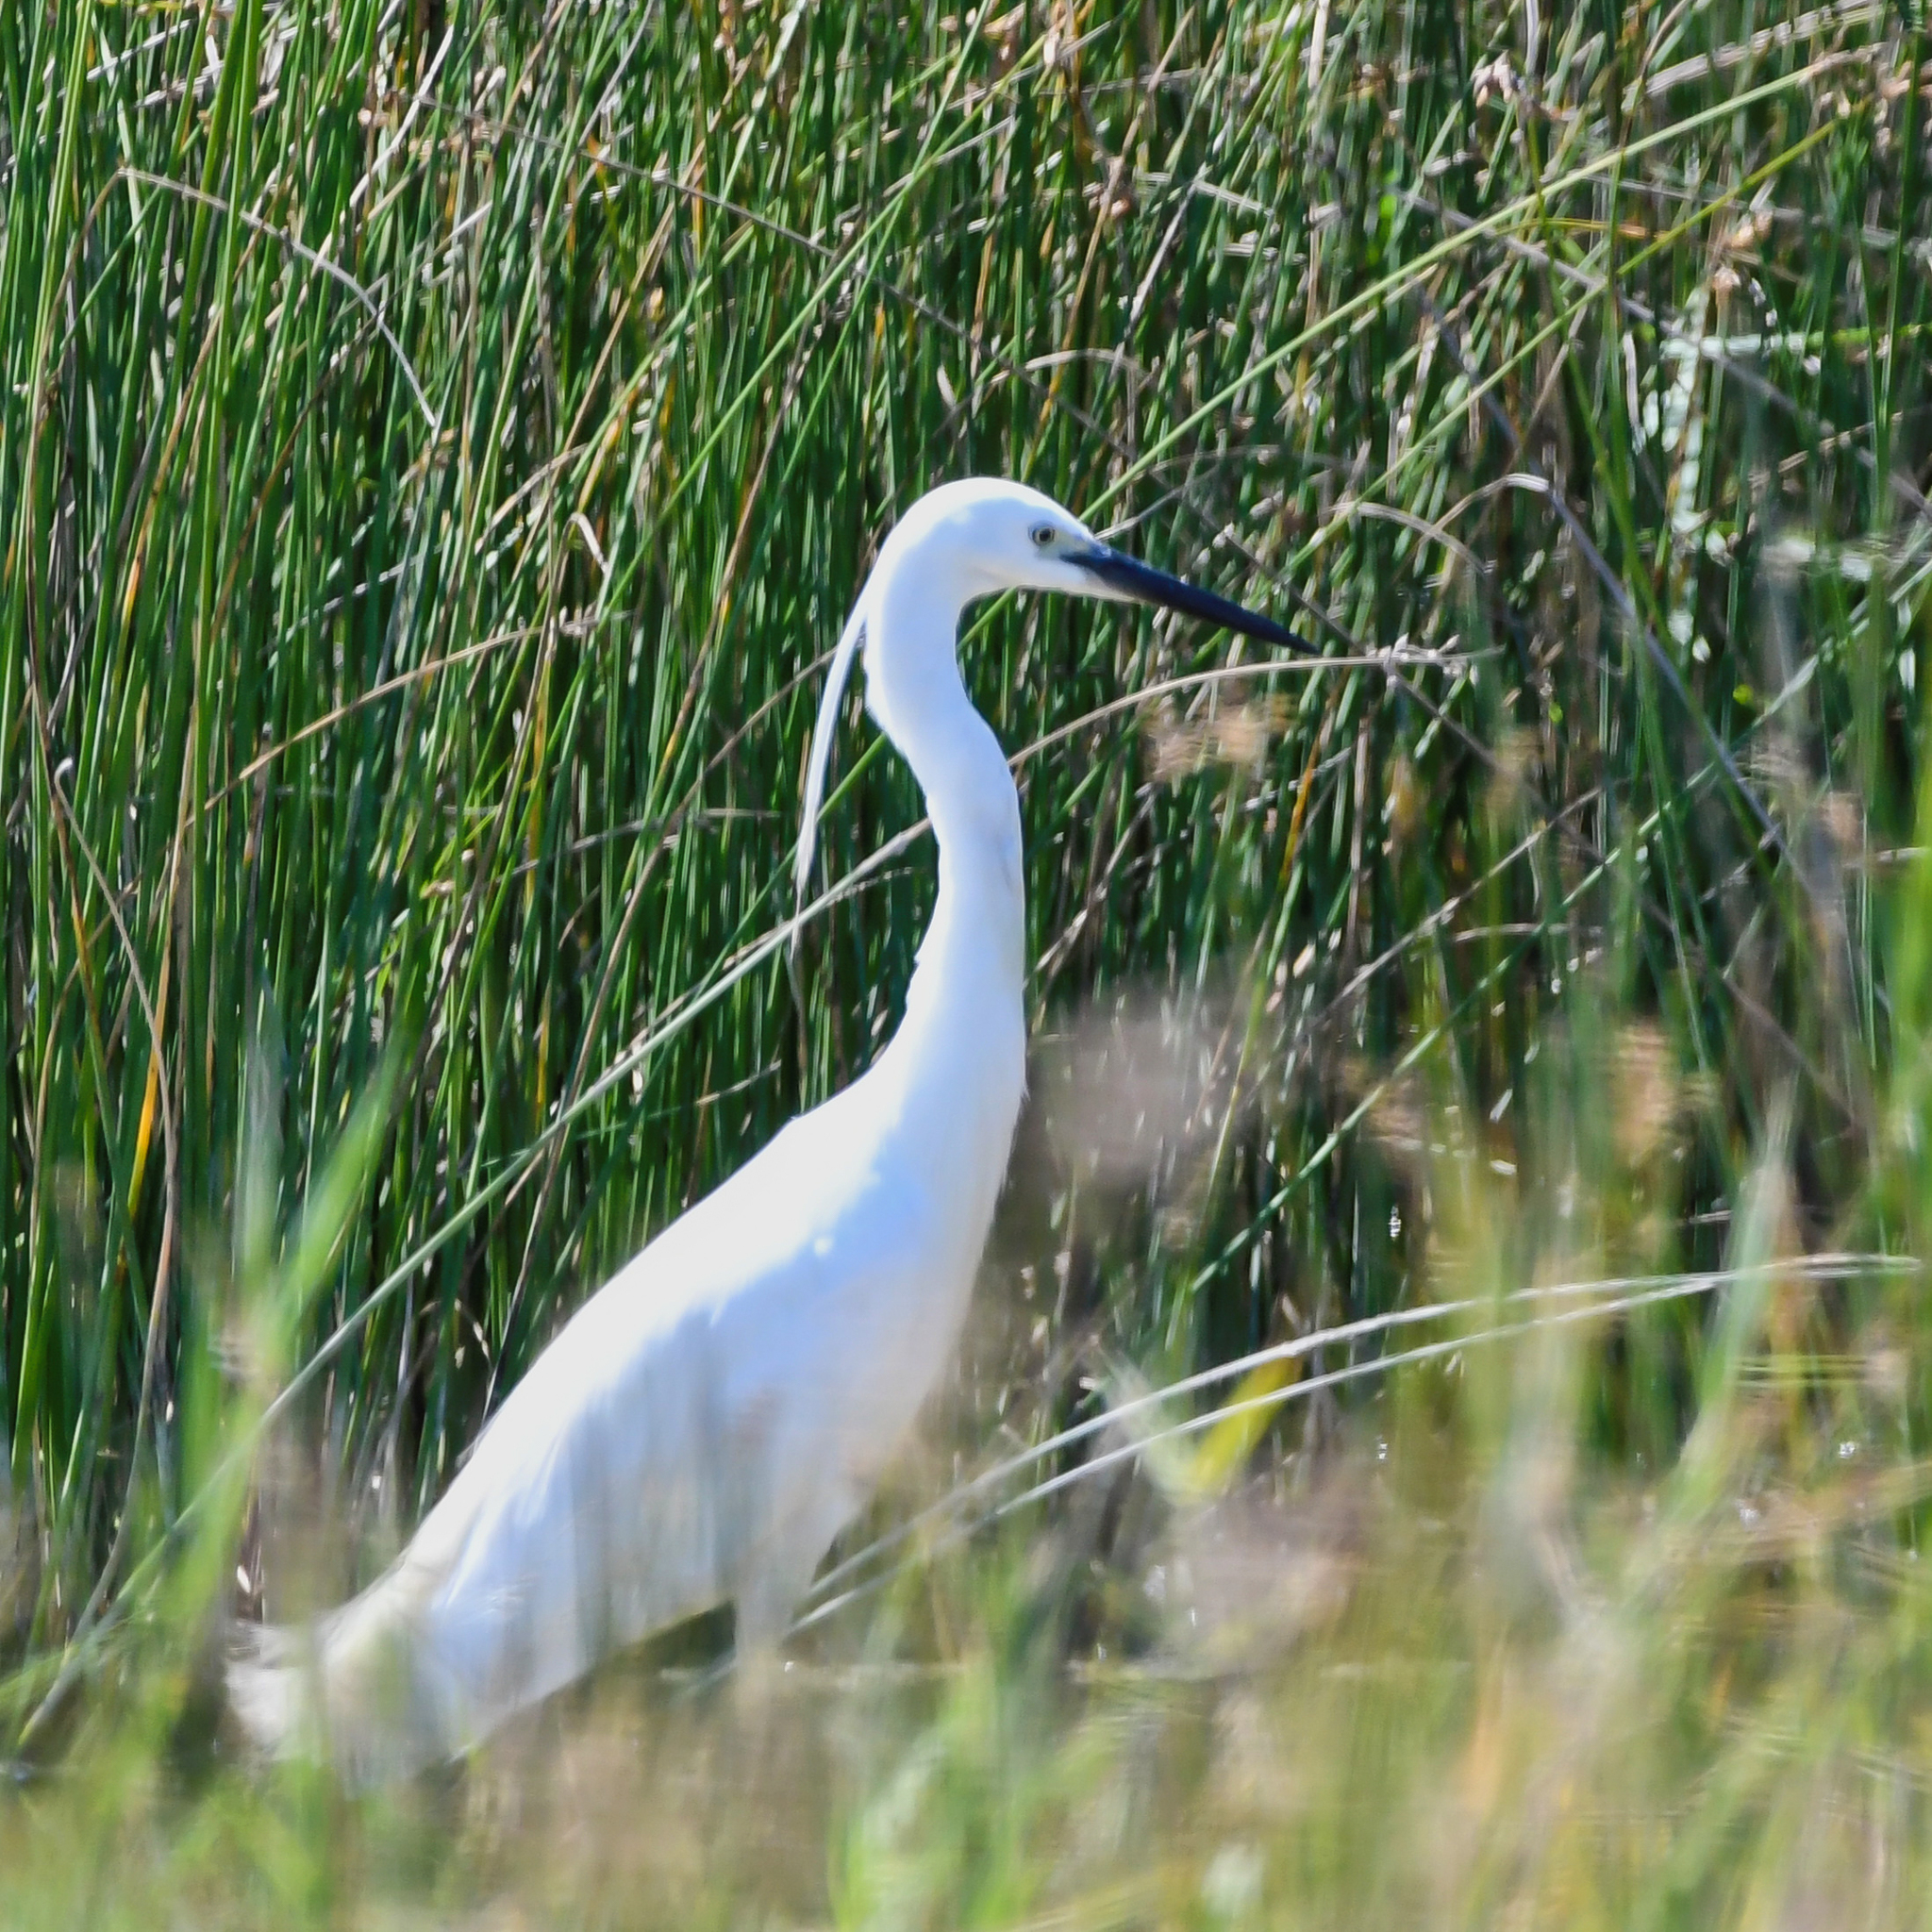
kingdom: Animalia
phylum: Chordata
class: Aves
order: Pelecaniformes
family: Ardeidae
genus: Egretta
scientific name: Egretta garzetta
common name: Little egret
